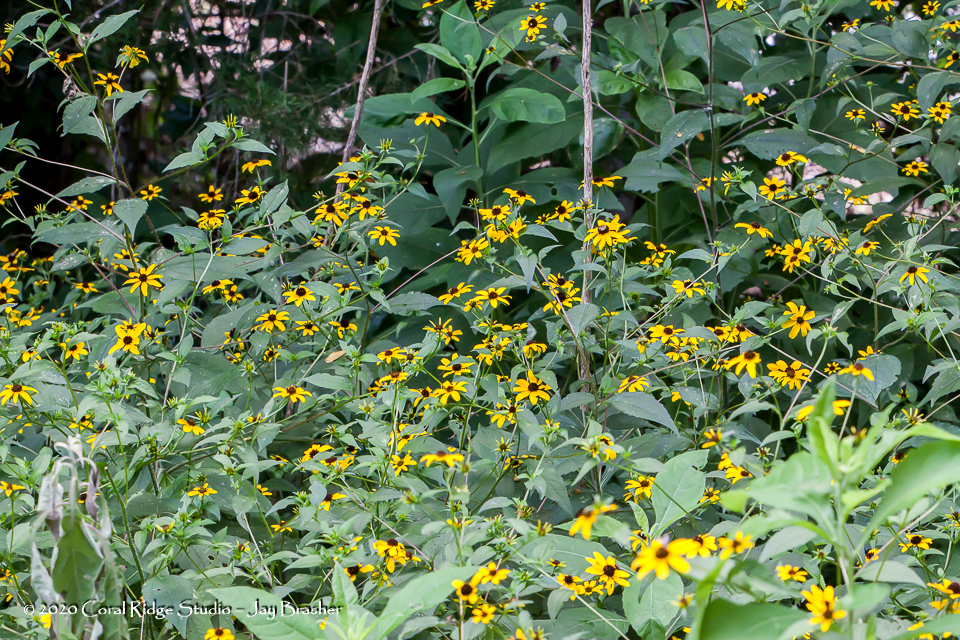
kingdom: Plantae
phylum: Tracheophyta
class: Magnoliopsida
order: Asterales
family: Asteraceae
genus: Rudbeckia
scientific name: Rudbeckia triloba
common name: Thin-leaved coneflower
